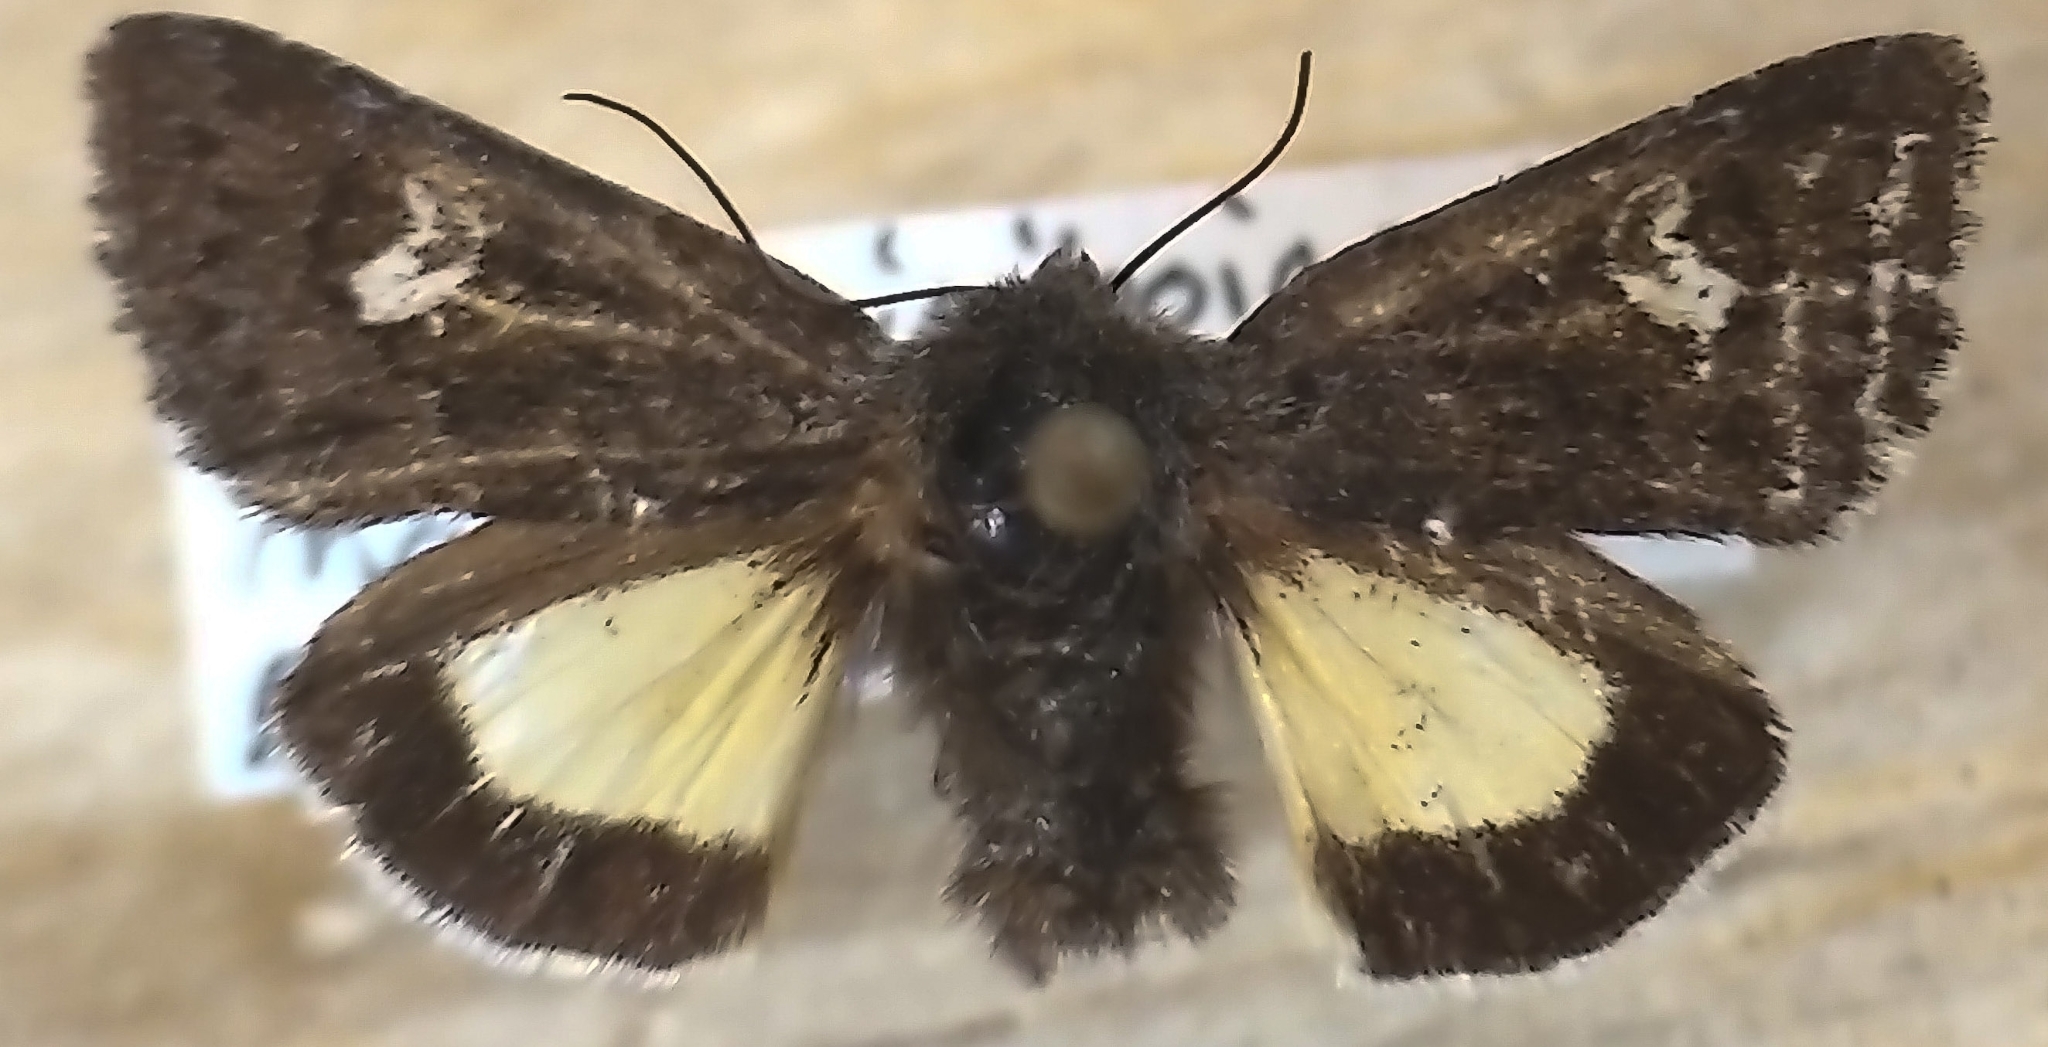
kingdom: Animalia
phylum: Arthropoda
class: Insecta
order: Lepidoptera
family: Noctuidae
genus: Coranarta
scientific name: Coranarta luteola
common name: Small dark yellow underwing
